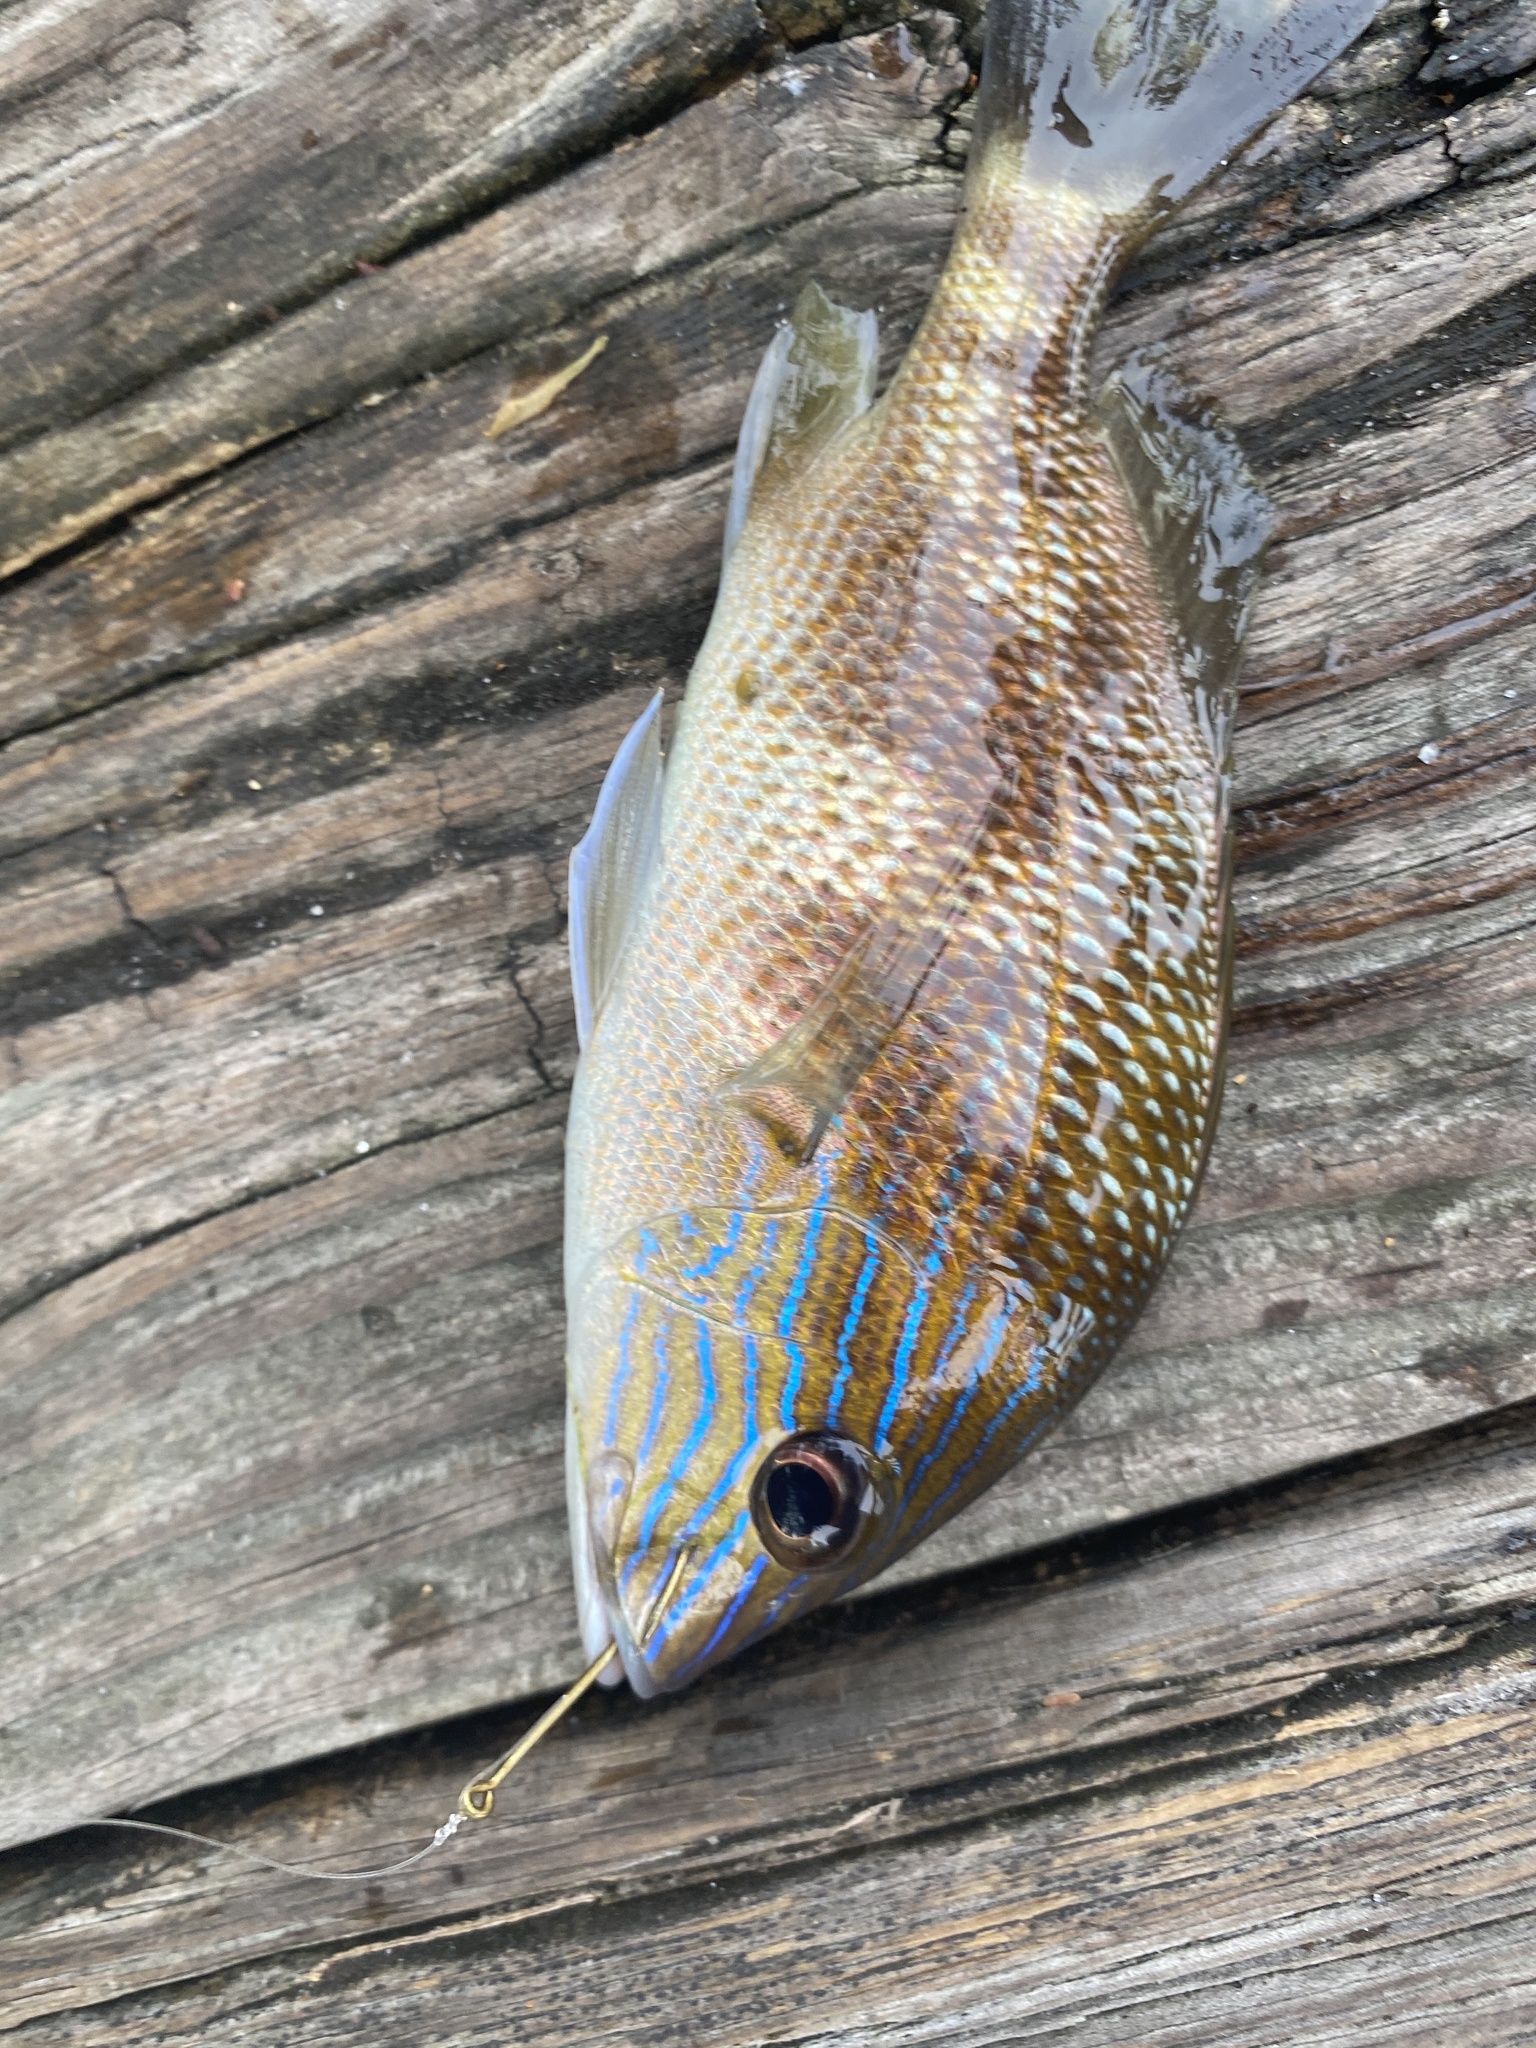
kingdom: Animalia
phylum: Chordata
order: Perciformes
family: Haemulidae
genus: Haemulon
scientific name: Haemulon plumierii
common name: White grunt
